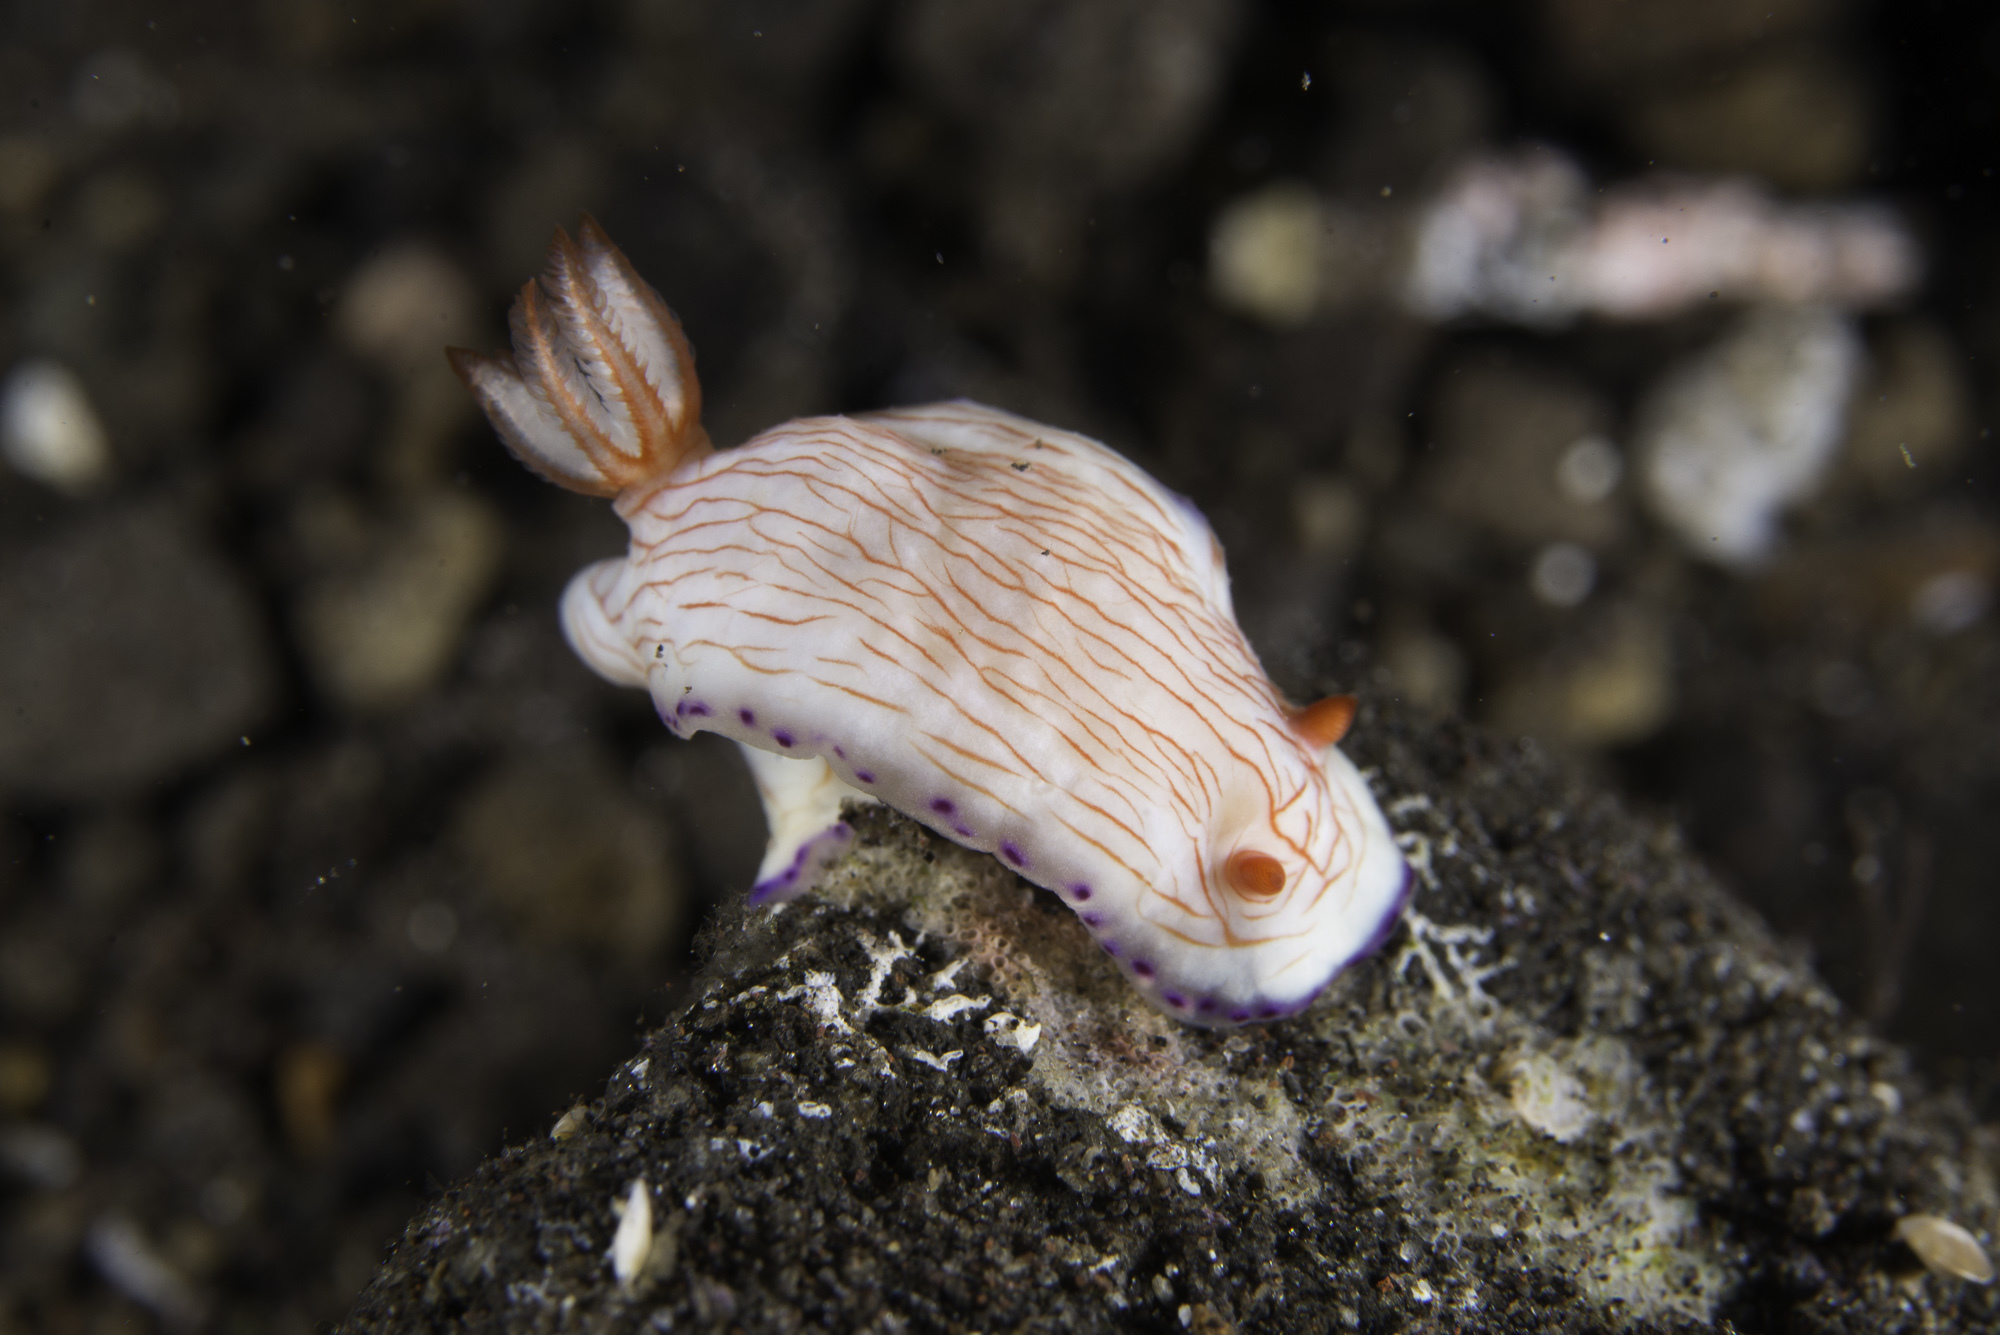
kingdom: Animalia
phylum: Mollusca
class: Gastropoda
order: Nudibranchia
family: Chromodorididae
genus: Hypselodoris
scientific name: Hypselodoris katherinae
